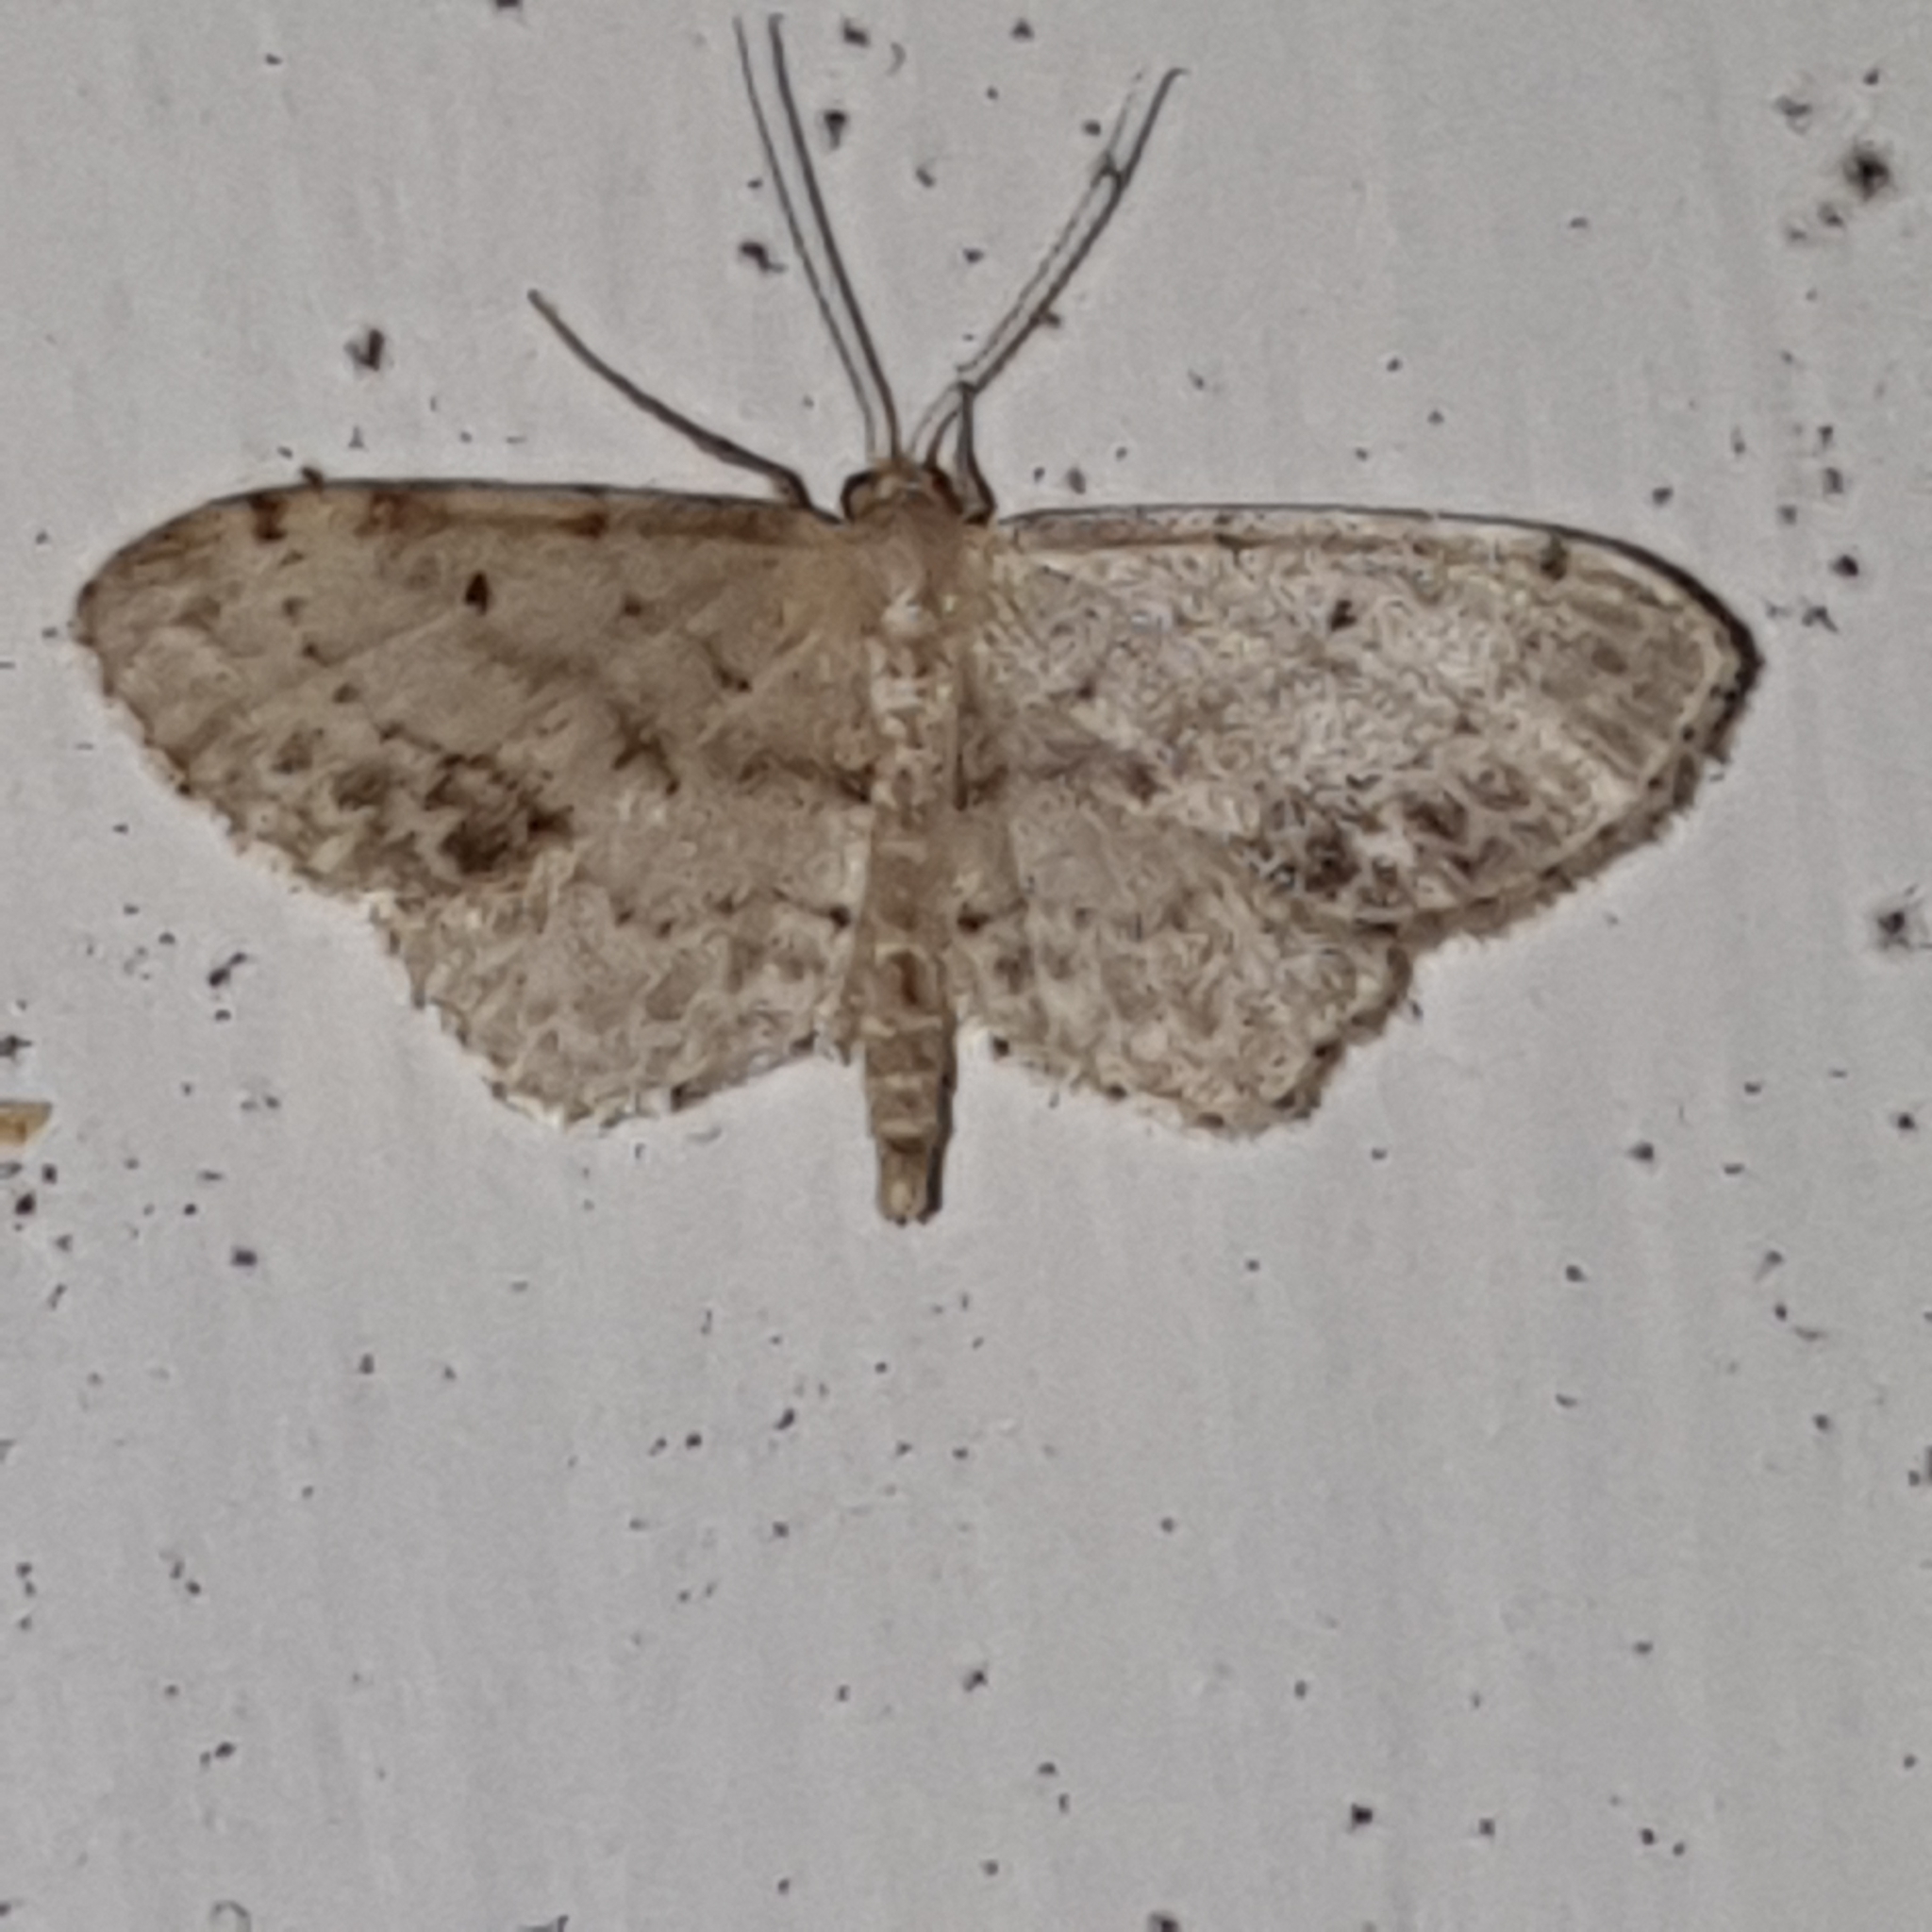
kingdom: Animalia
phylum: Arthropoda
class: Insecta
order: Lepidoptera
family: Geometridae
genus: Idaea
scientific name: Idaea dimidiata
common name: Single-dotted wave
